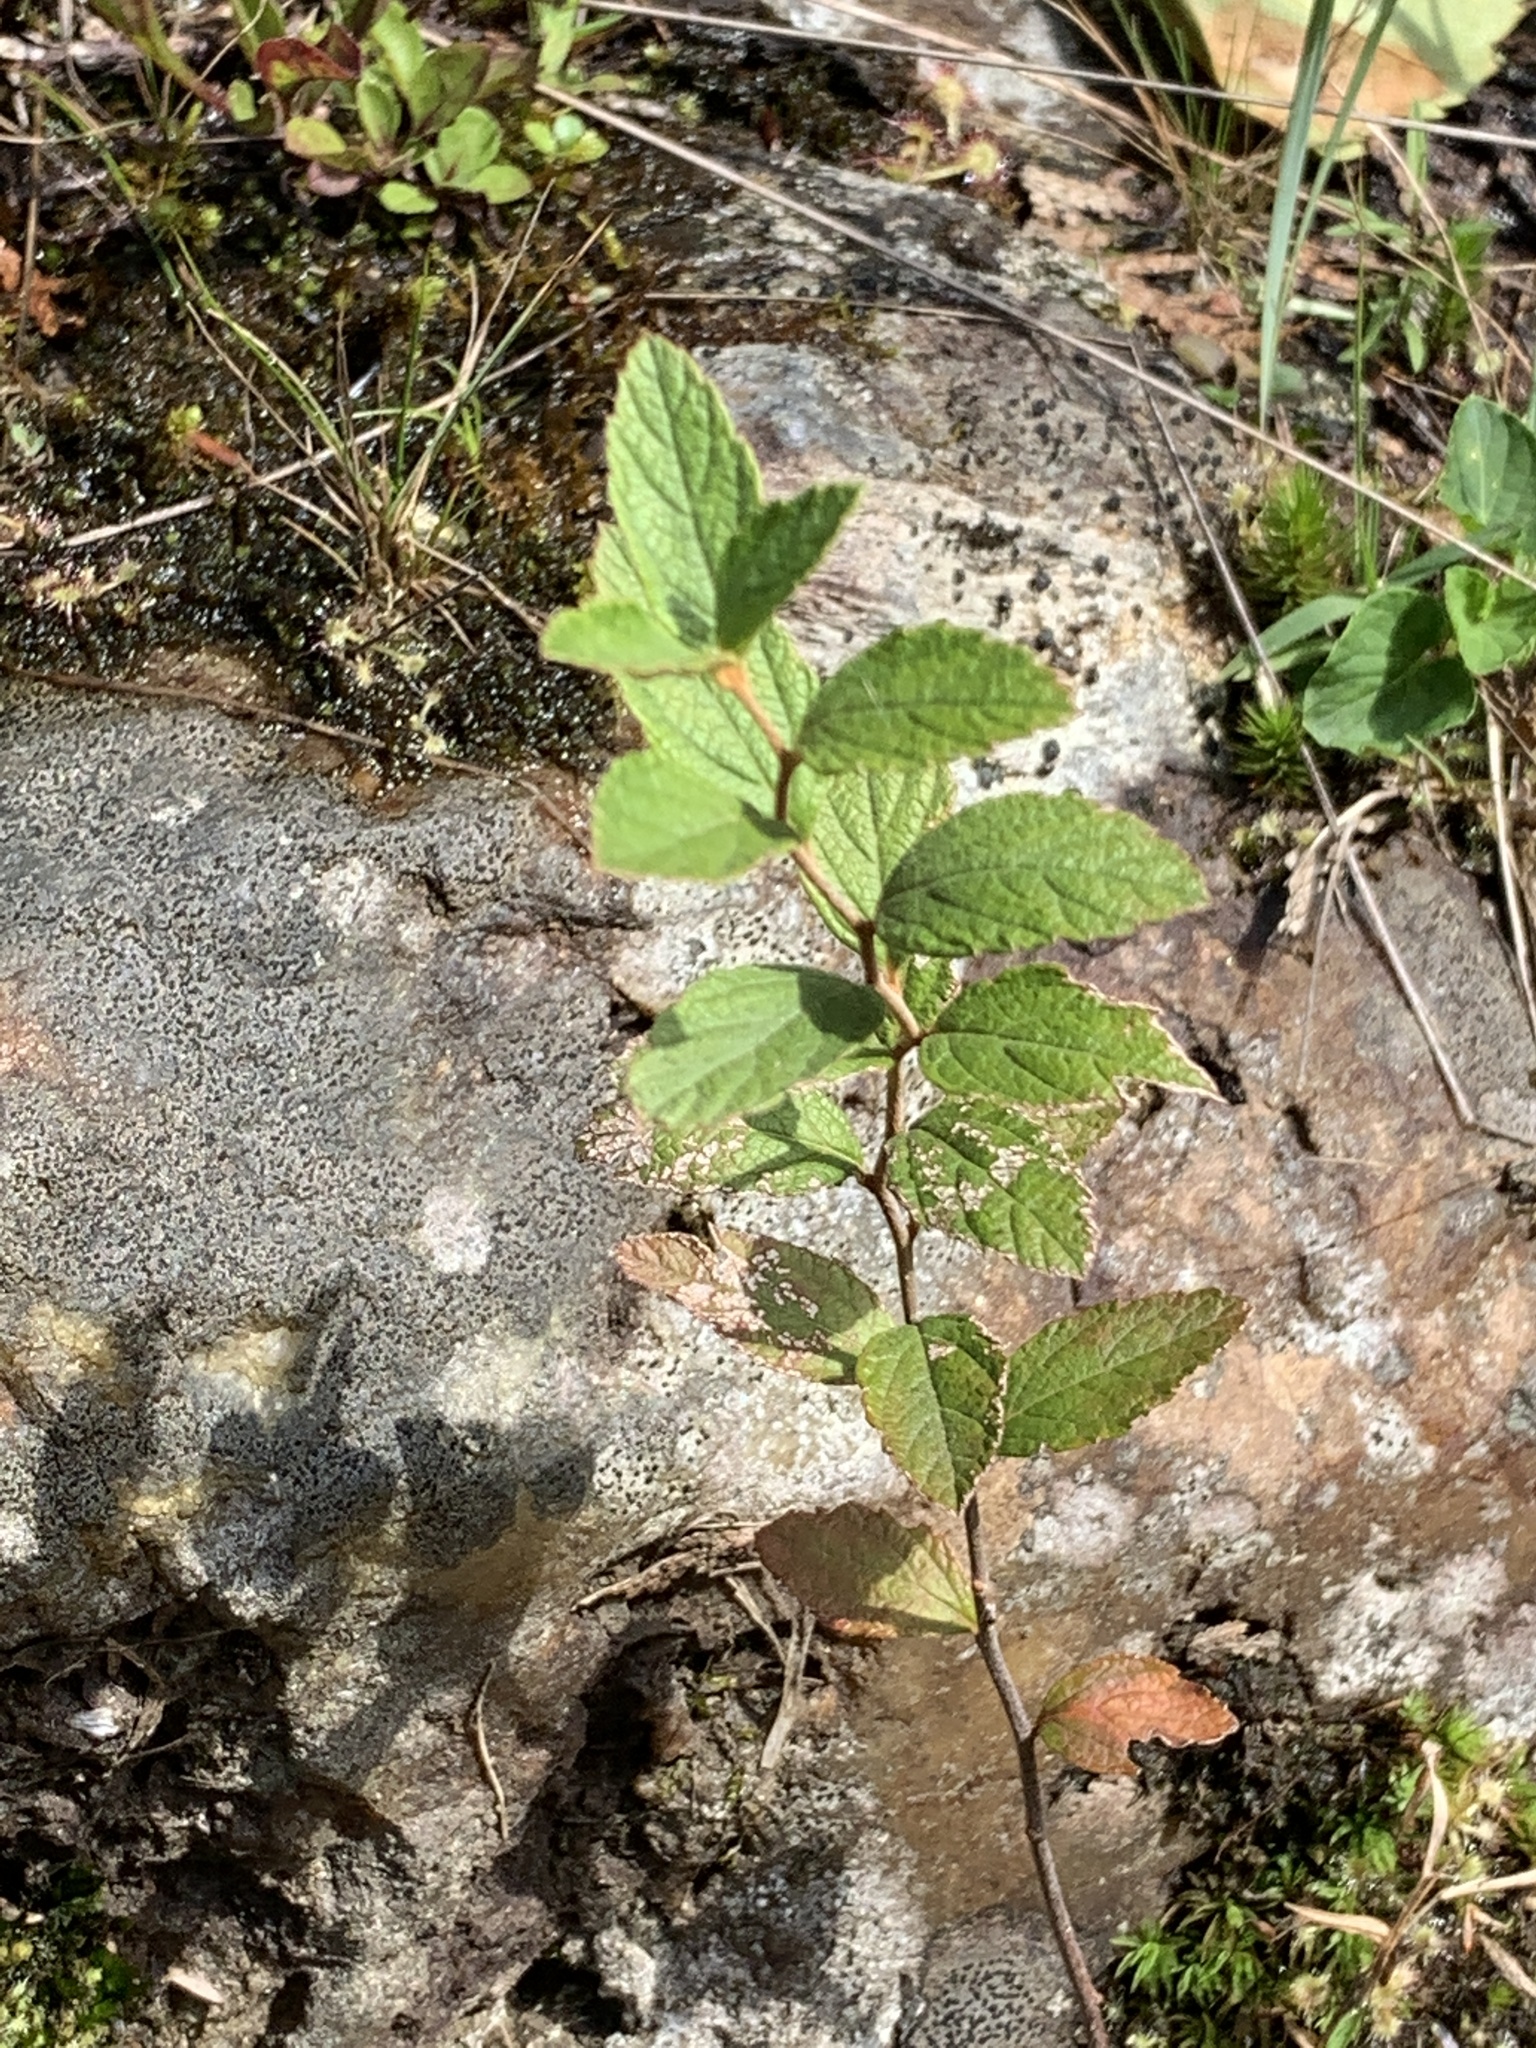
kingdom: Plantae
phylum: Tracheophyta
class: Magnoliopsida
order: Rosales
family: Rosaceae
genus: Spiraea
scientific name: Spiraea tomentosa
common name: Hardhack
